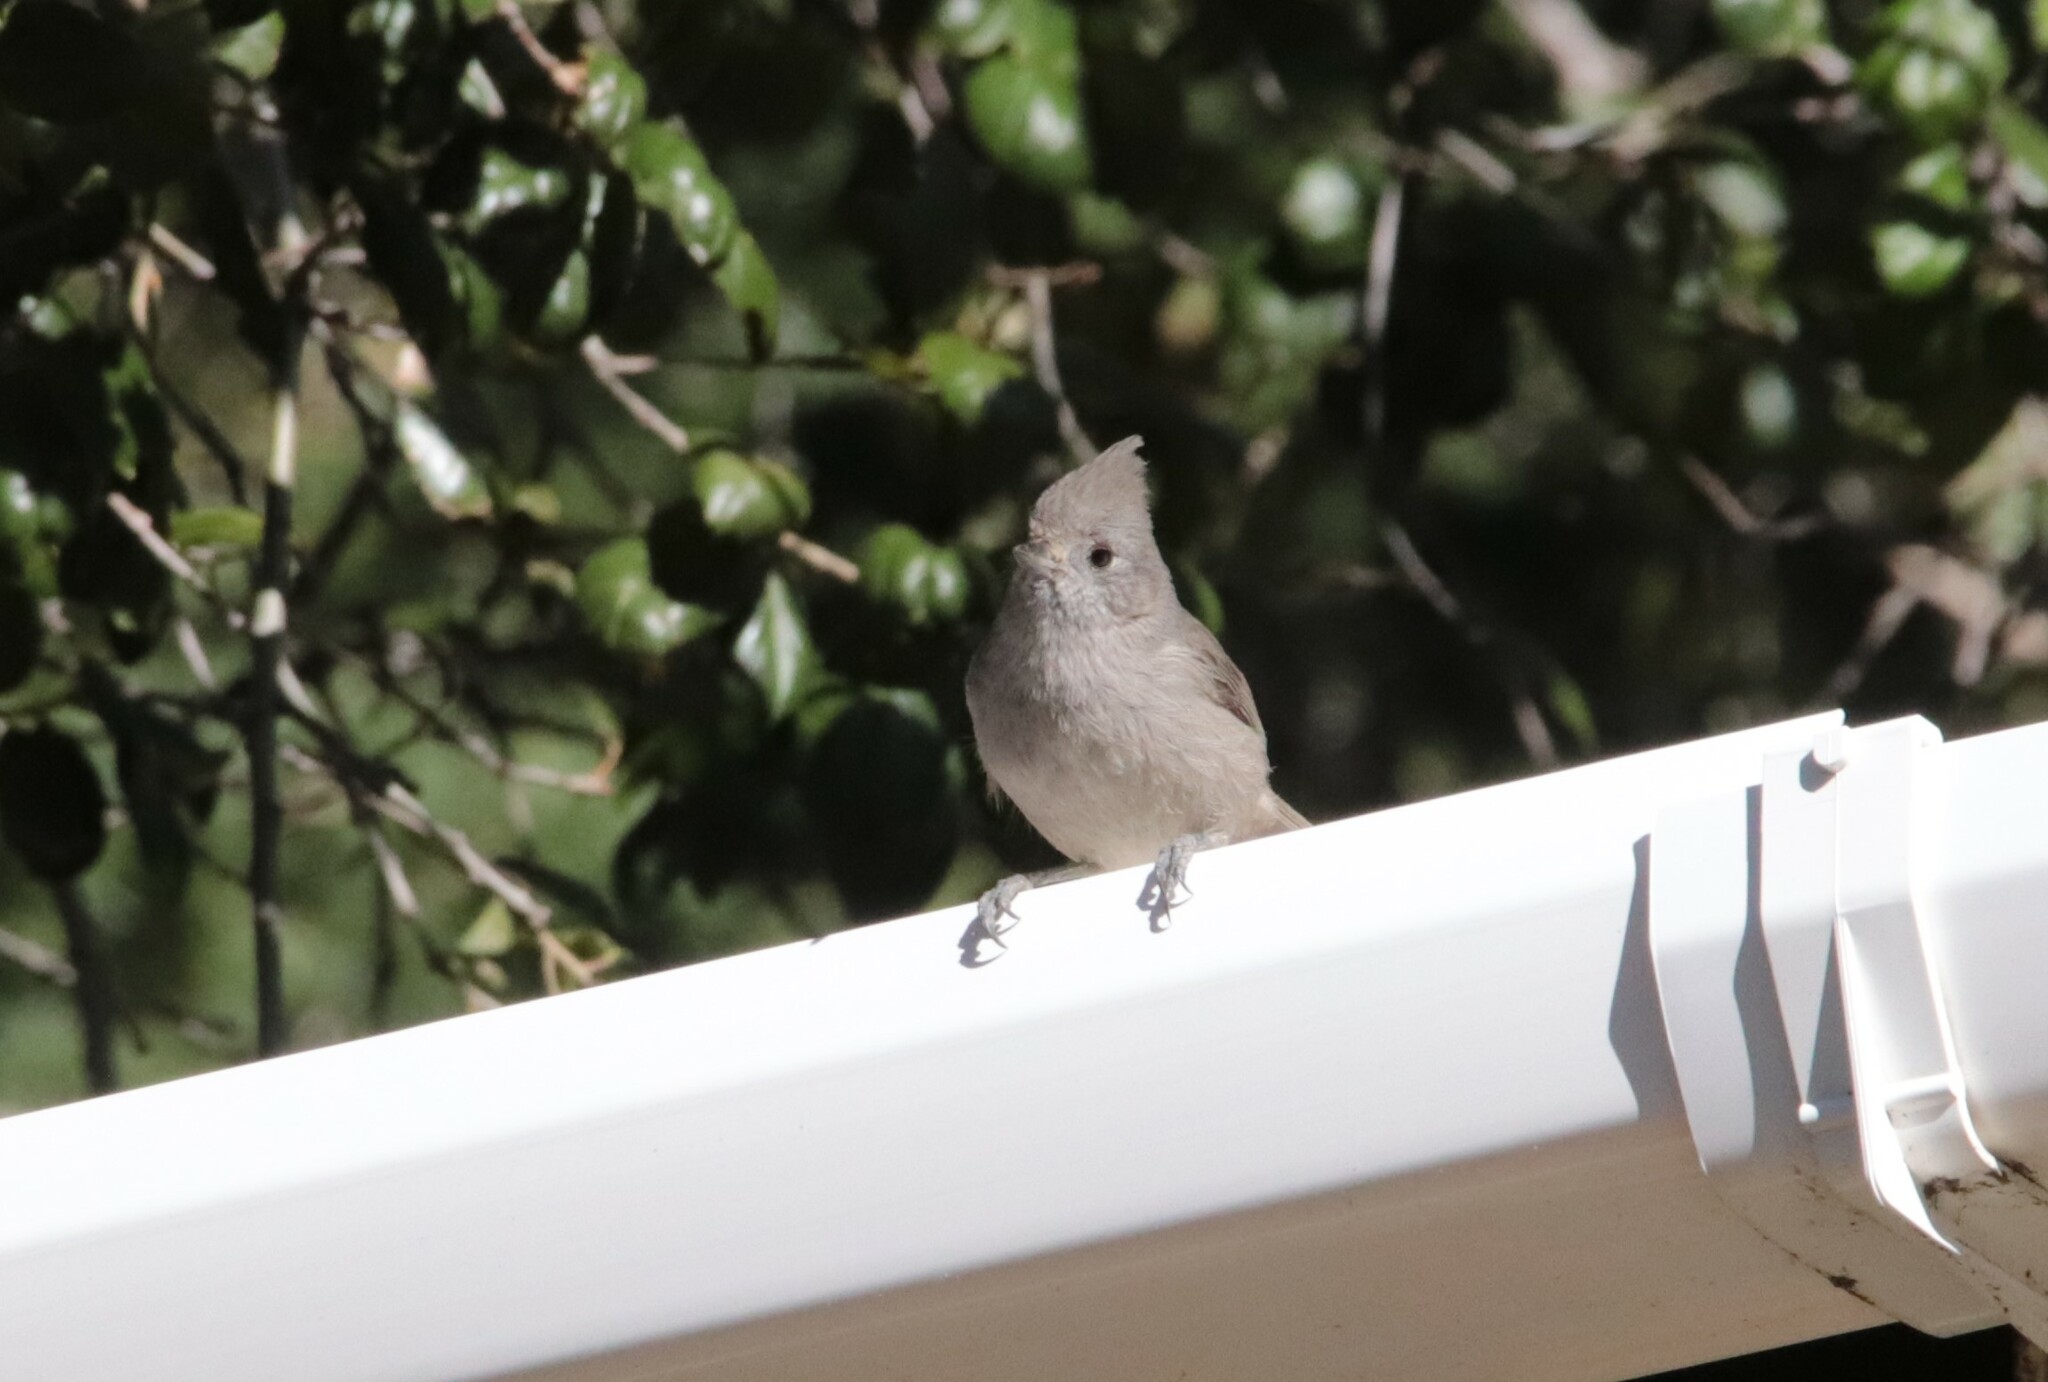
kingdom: Animalia
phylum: Chordata
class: Aves
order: Passeriformes
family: Paridae
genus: Baeolophus
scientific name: Baeolophus inornatus
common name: Oak titmouse
